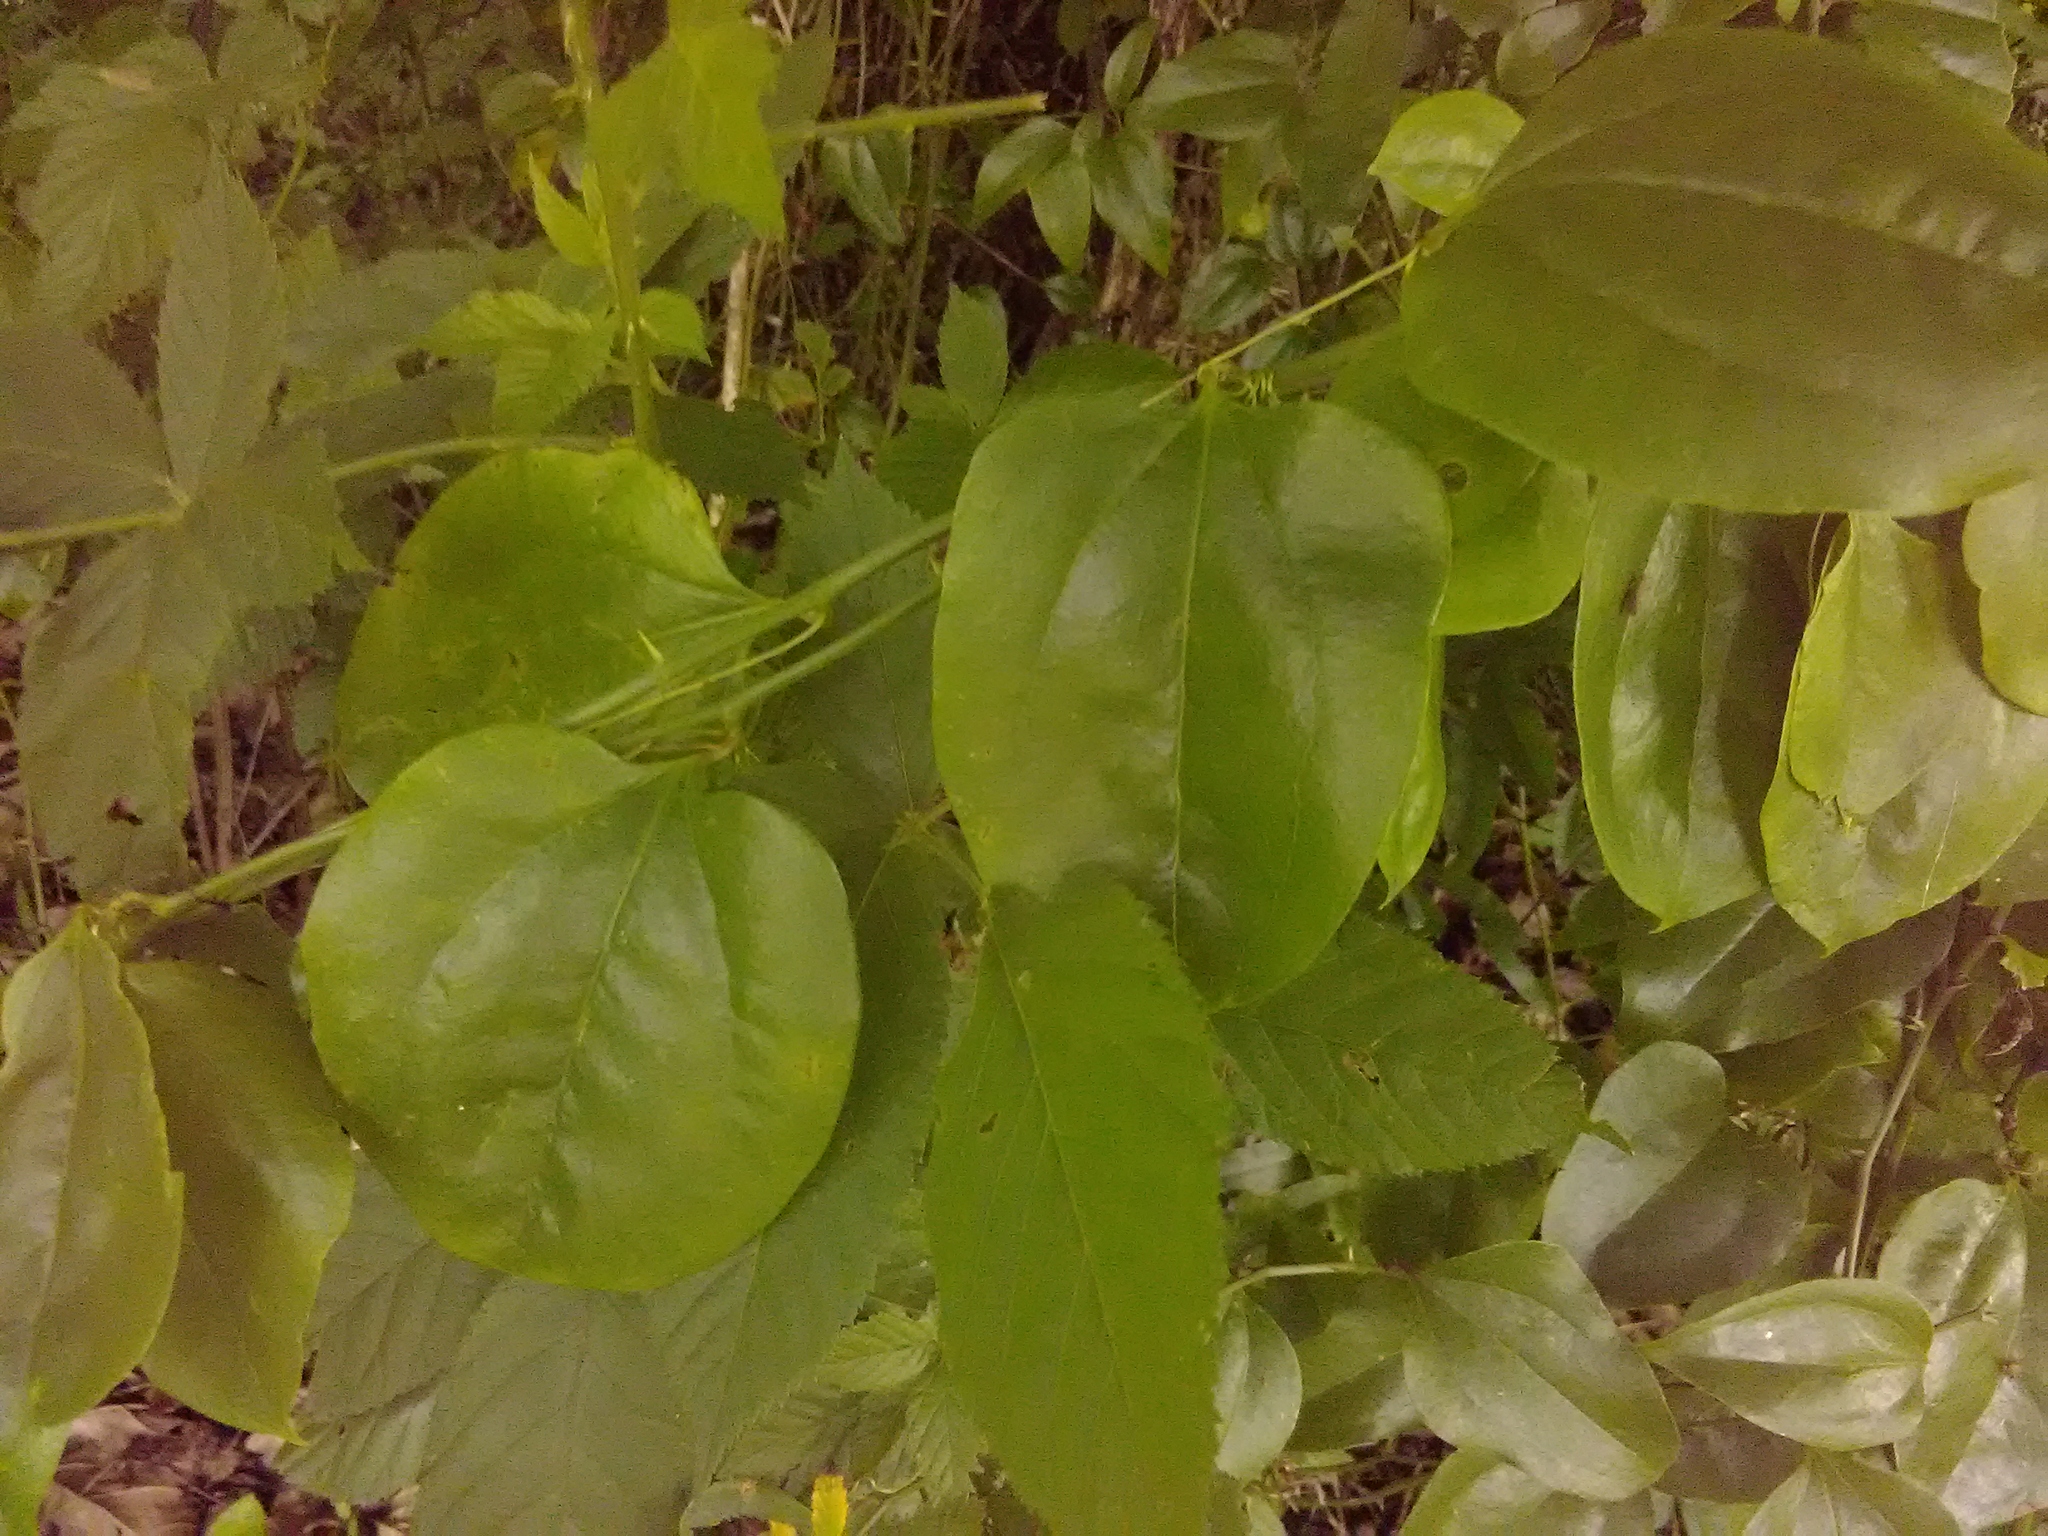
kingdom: Plantae
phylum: Tracheophyta
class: Liliopsida
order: Liliales
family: Smilacaceae
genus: Smilax
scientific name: Smilax rotundifolia
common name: Bullbriar
